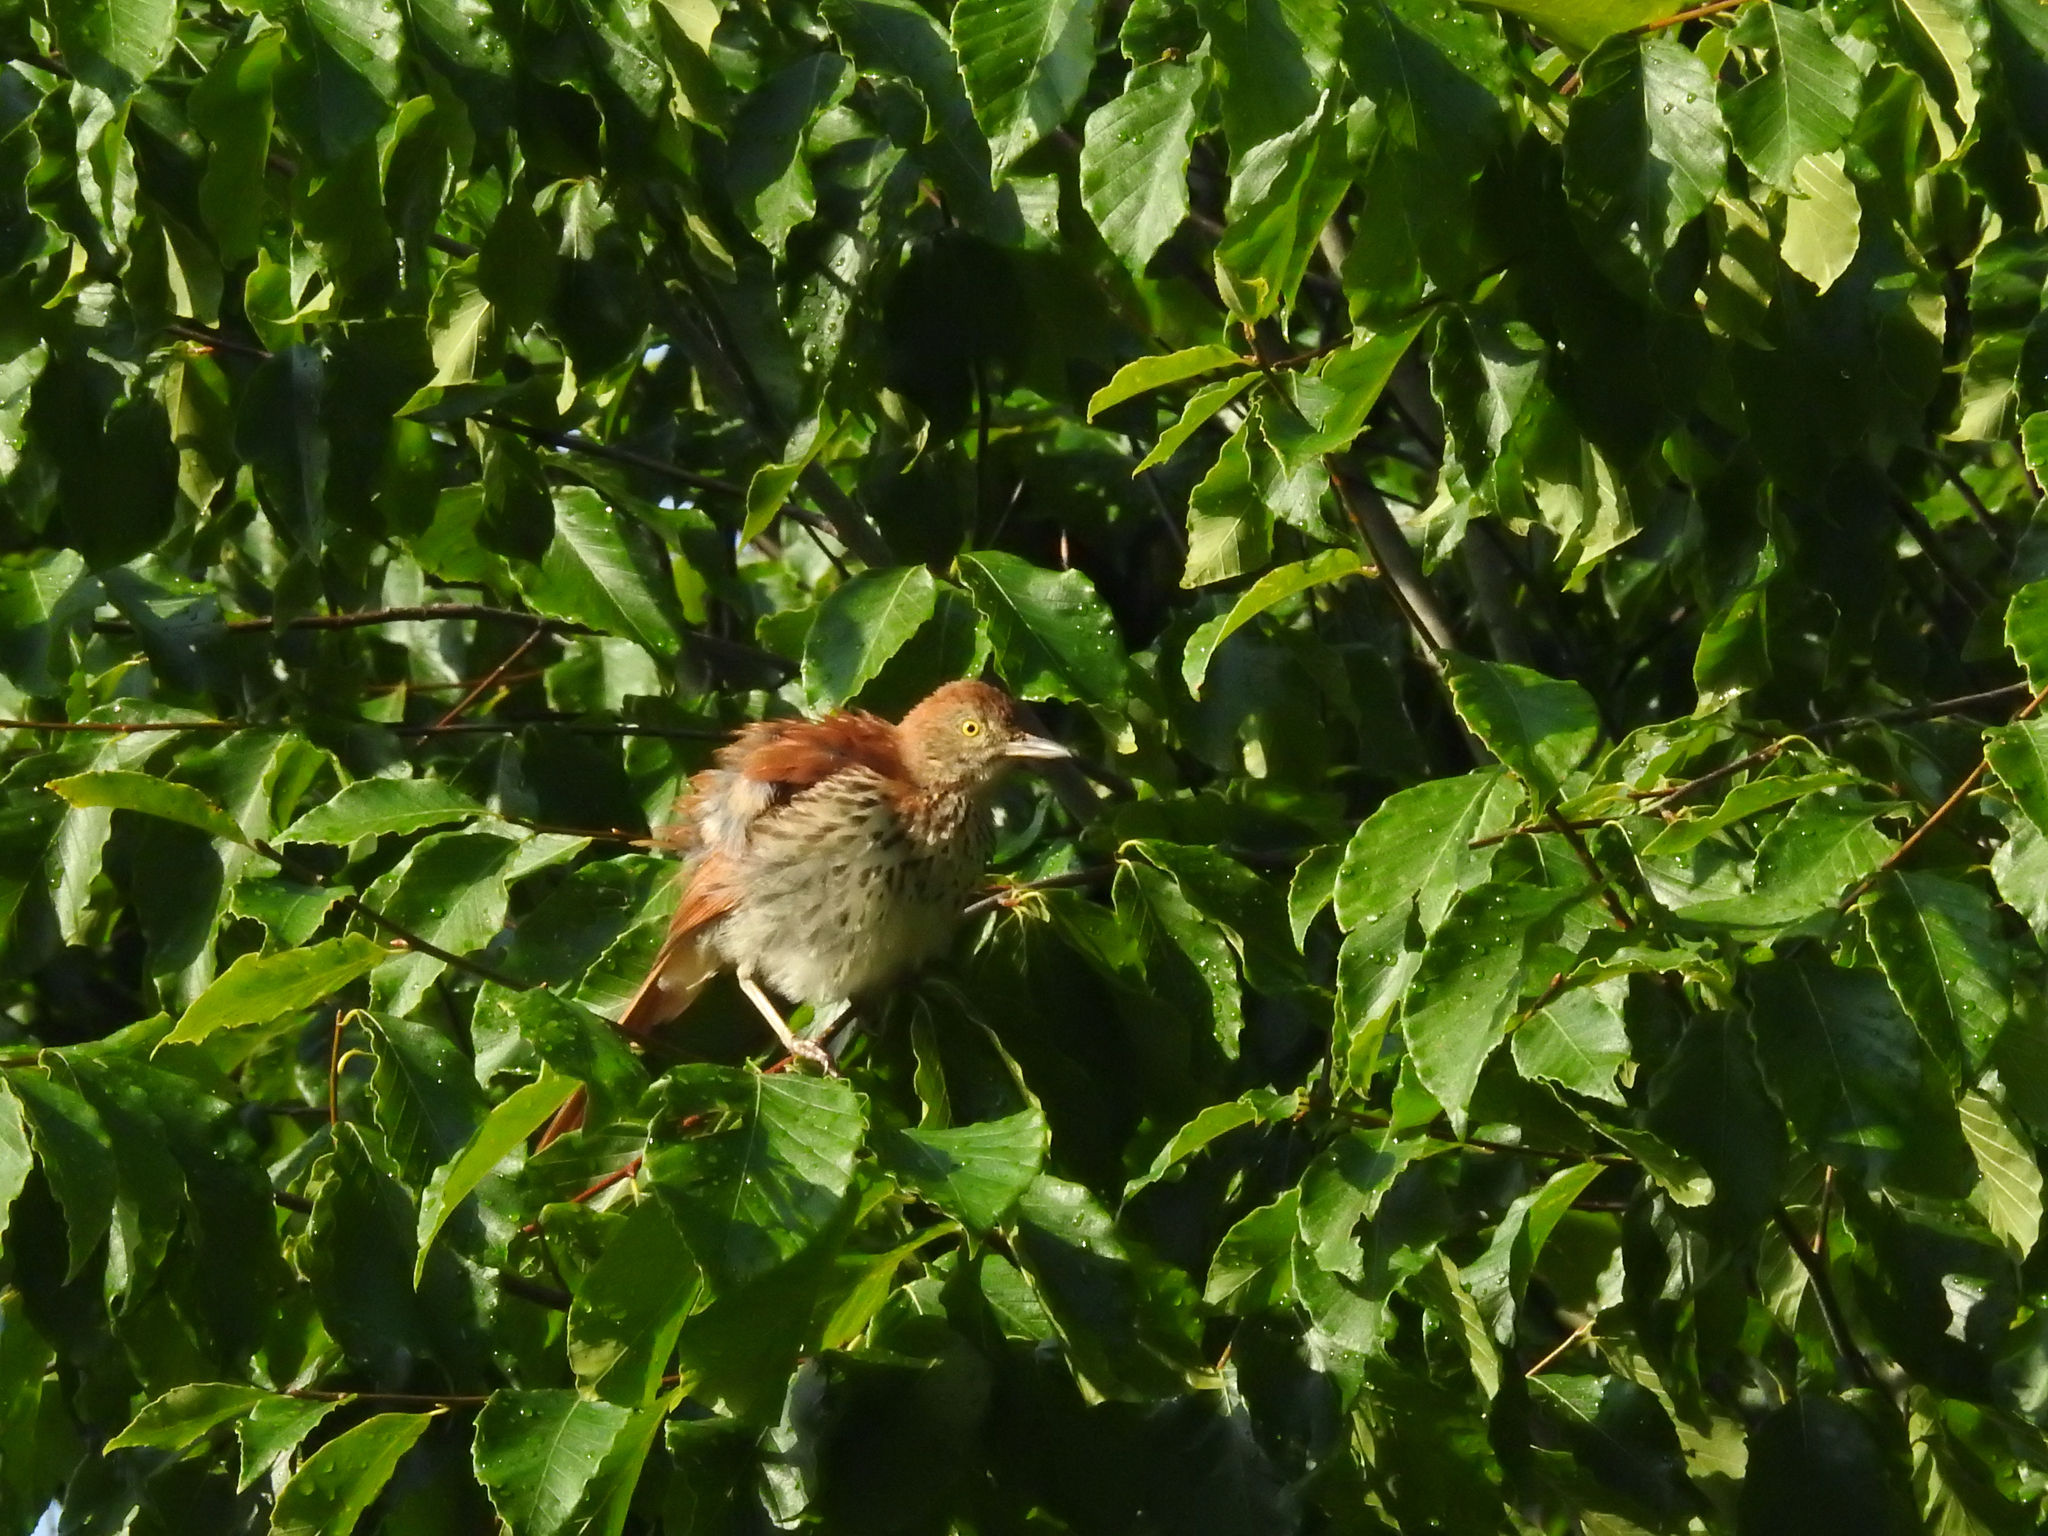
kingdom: Animalia
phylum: Chordata
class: Aves
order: Passeriformes
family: Mimidae
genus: Toxostoma
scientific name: Toxostoma rufum
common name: Brown thrasher
